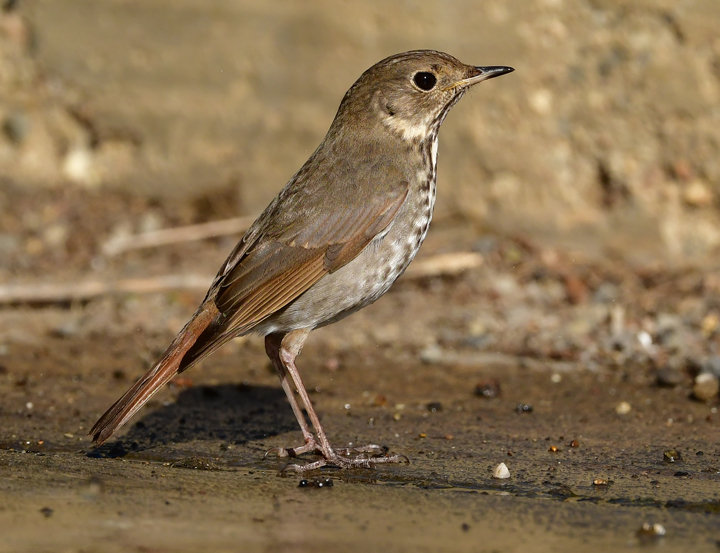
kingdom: Animalia
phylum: Chordata
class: Aves
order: Passeriformes
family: Turdidae
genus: Catharus
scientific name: Catharus guttatus
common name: Hermit thrush
